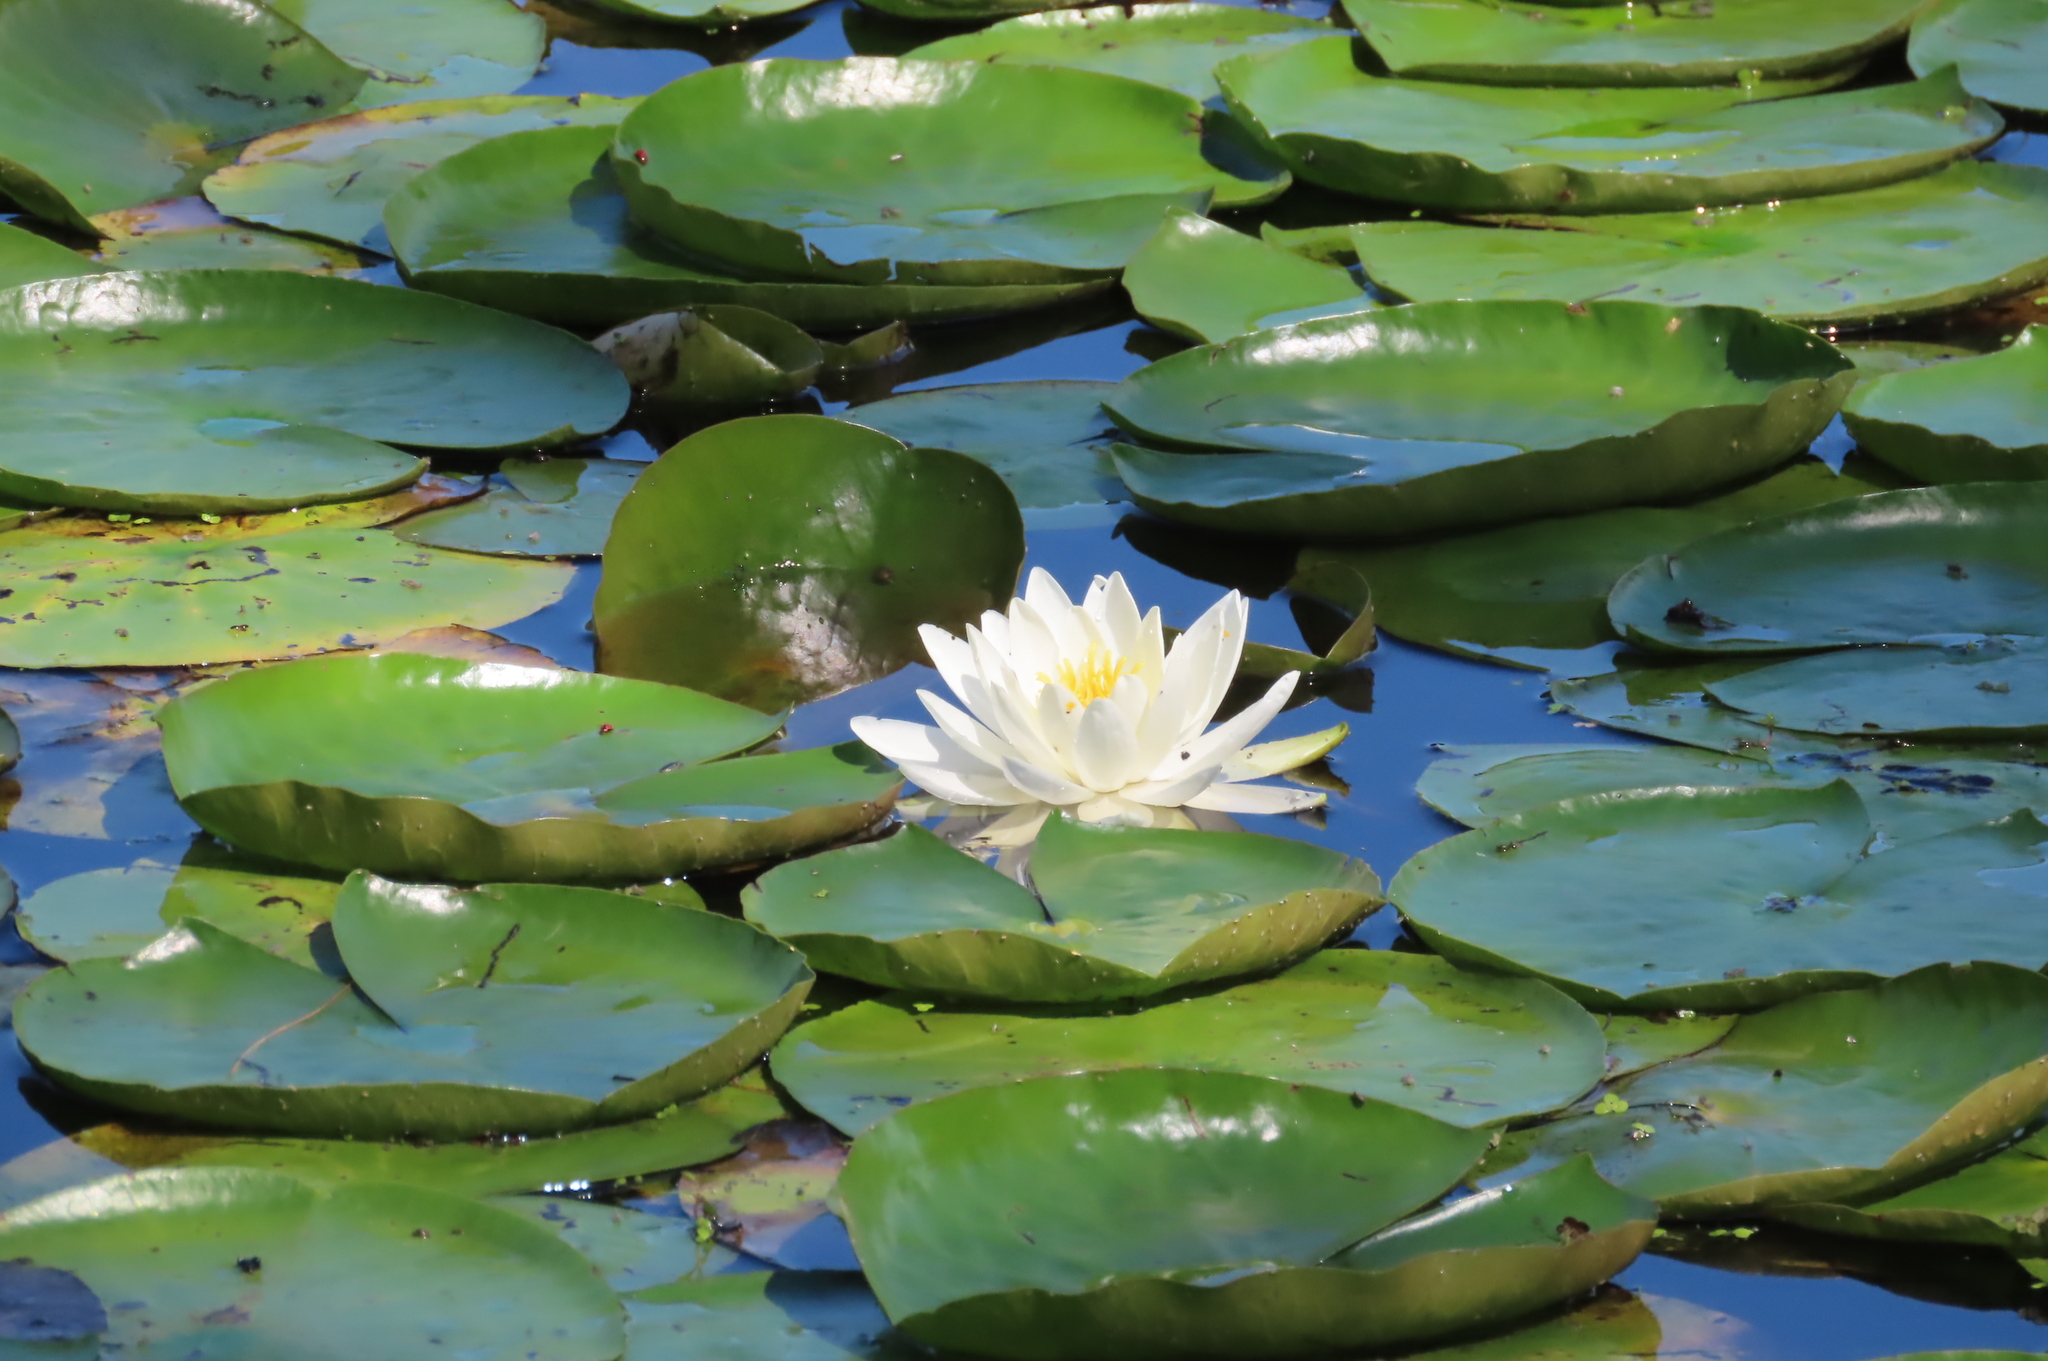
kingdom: Plantae
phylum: Tracheophyta
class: Magnoliopsida
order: Nymphaeales
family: Nymphaeaceae
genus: Nymphaea
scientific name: Nymphaea odorata
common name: Fragrant water-lily
